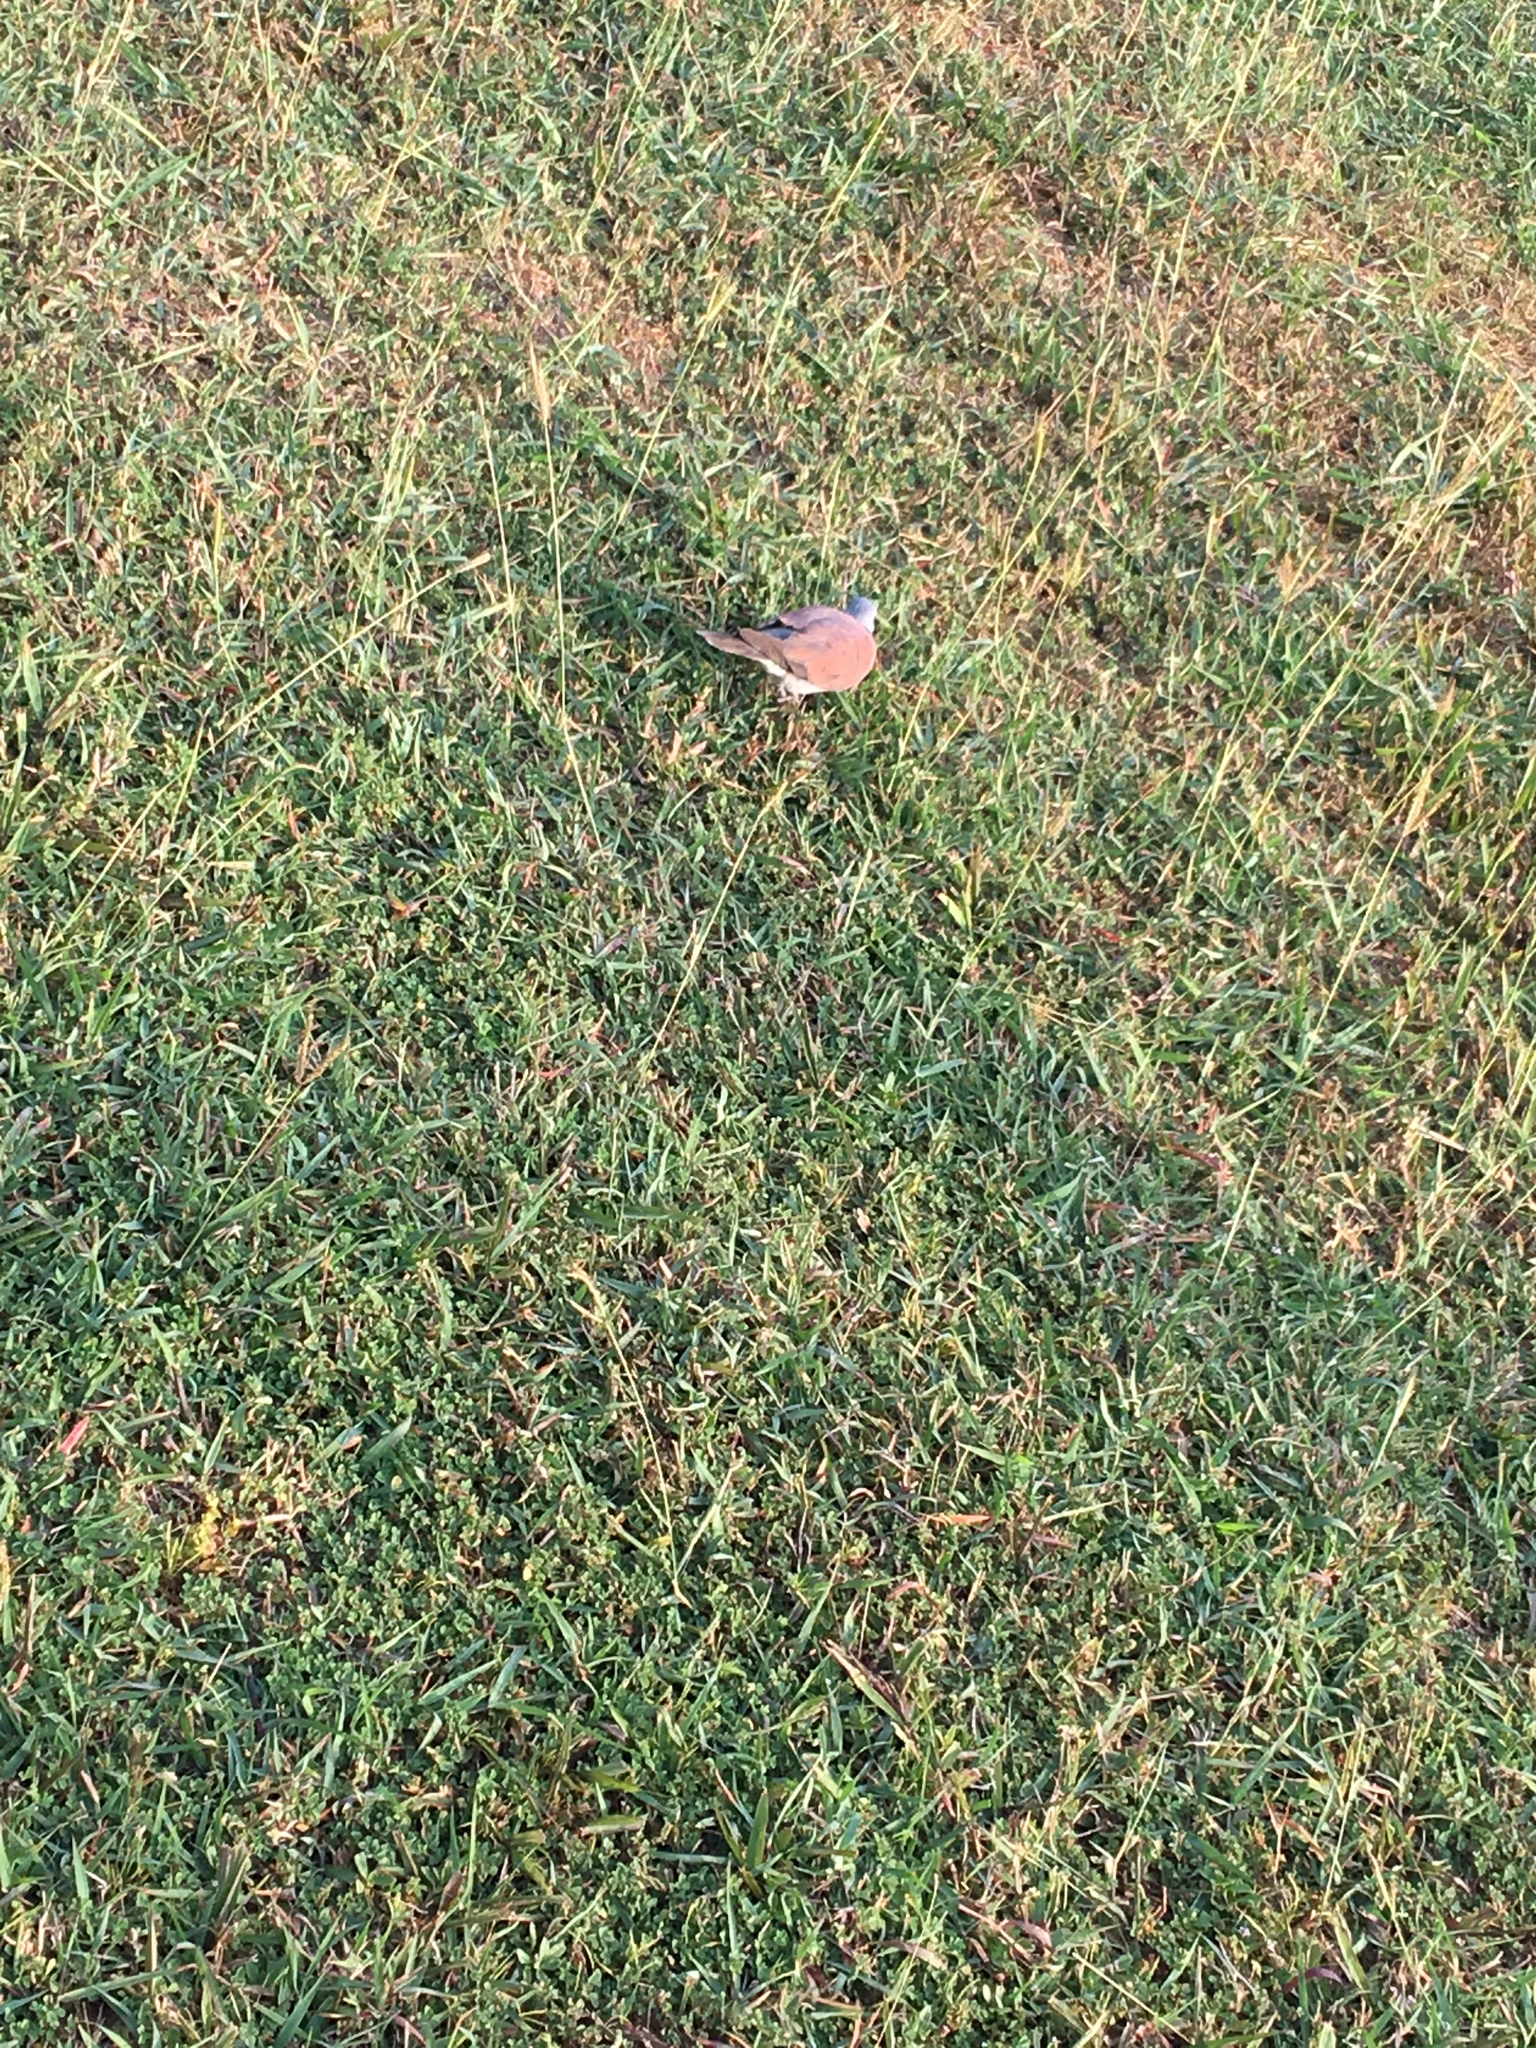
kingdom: Animalia
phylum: Chordata
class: Aves
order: Columbiformes
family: Columbidae
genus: Streptopelia
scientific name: Streptopelia tranquebarica
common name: Red turtle dove
